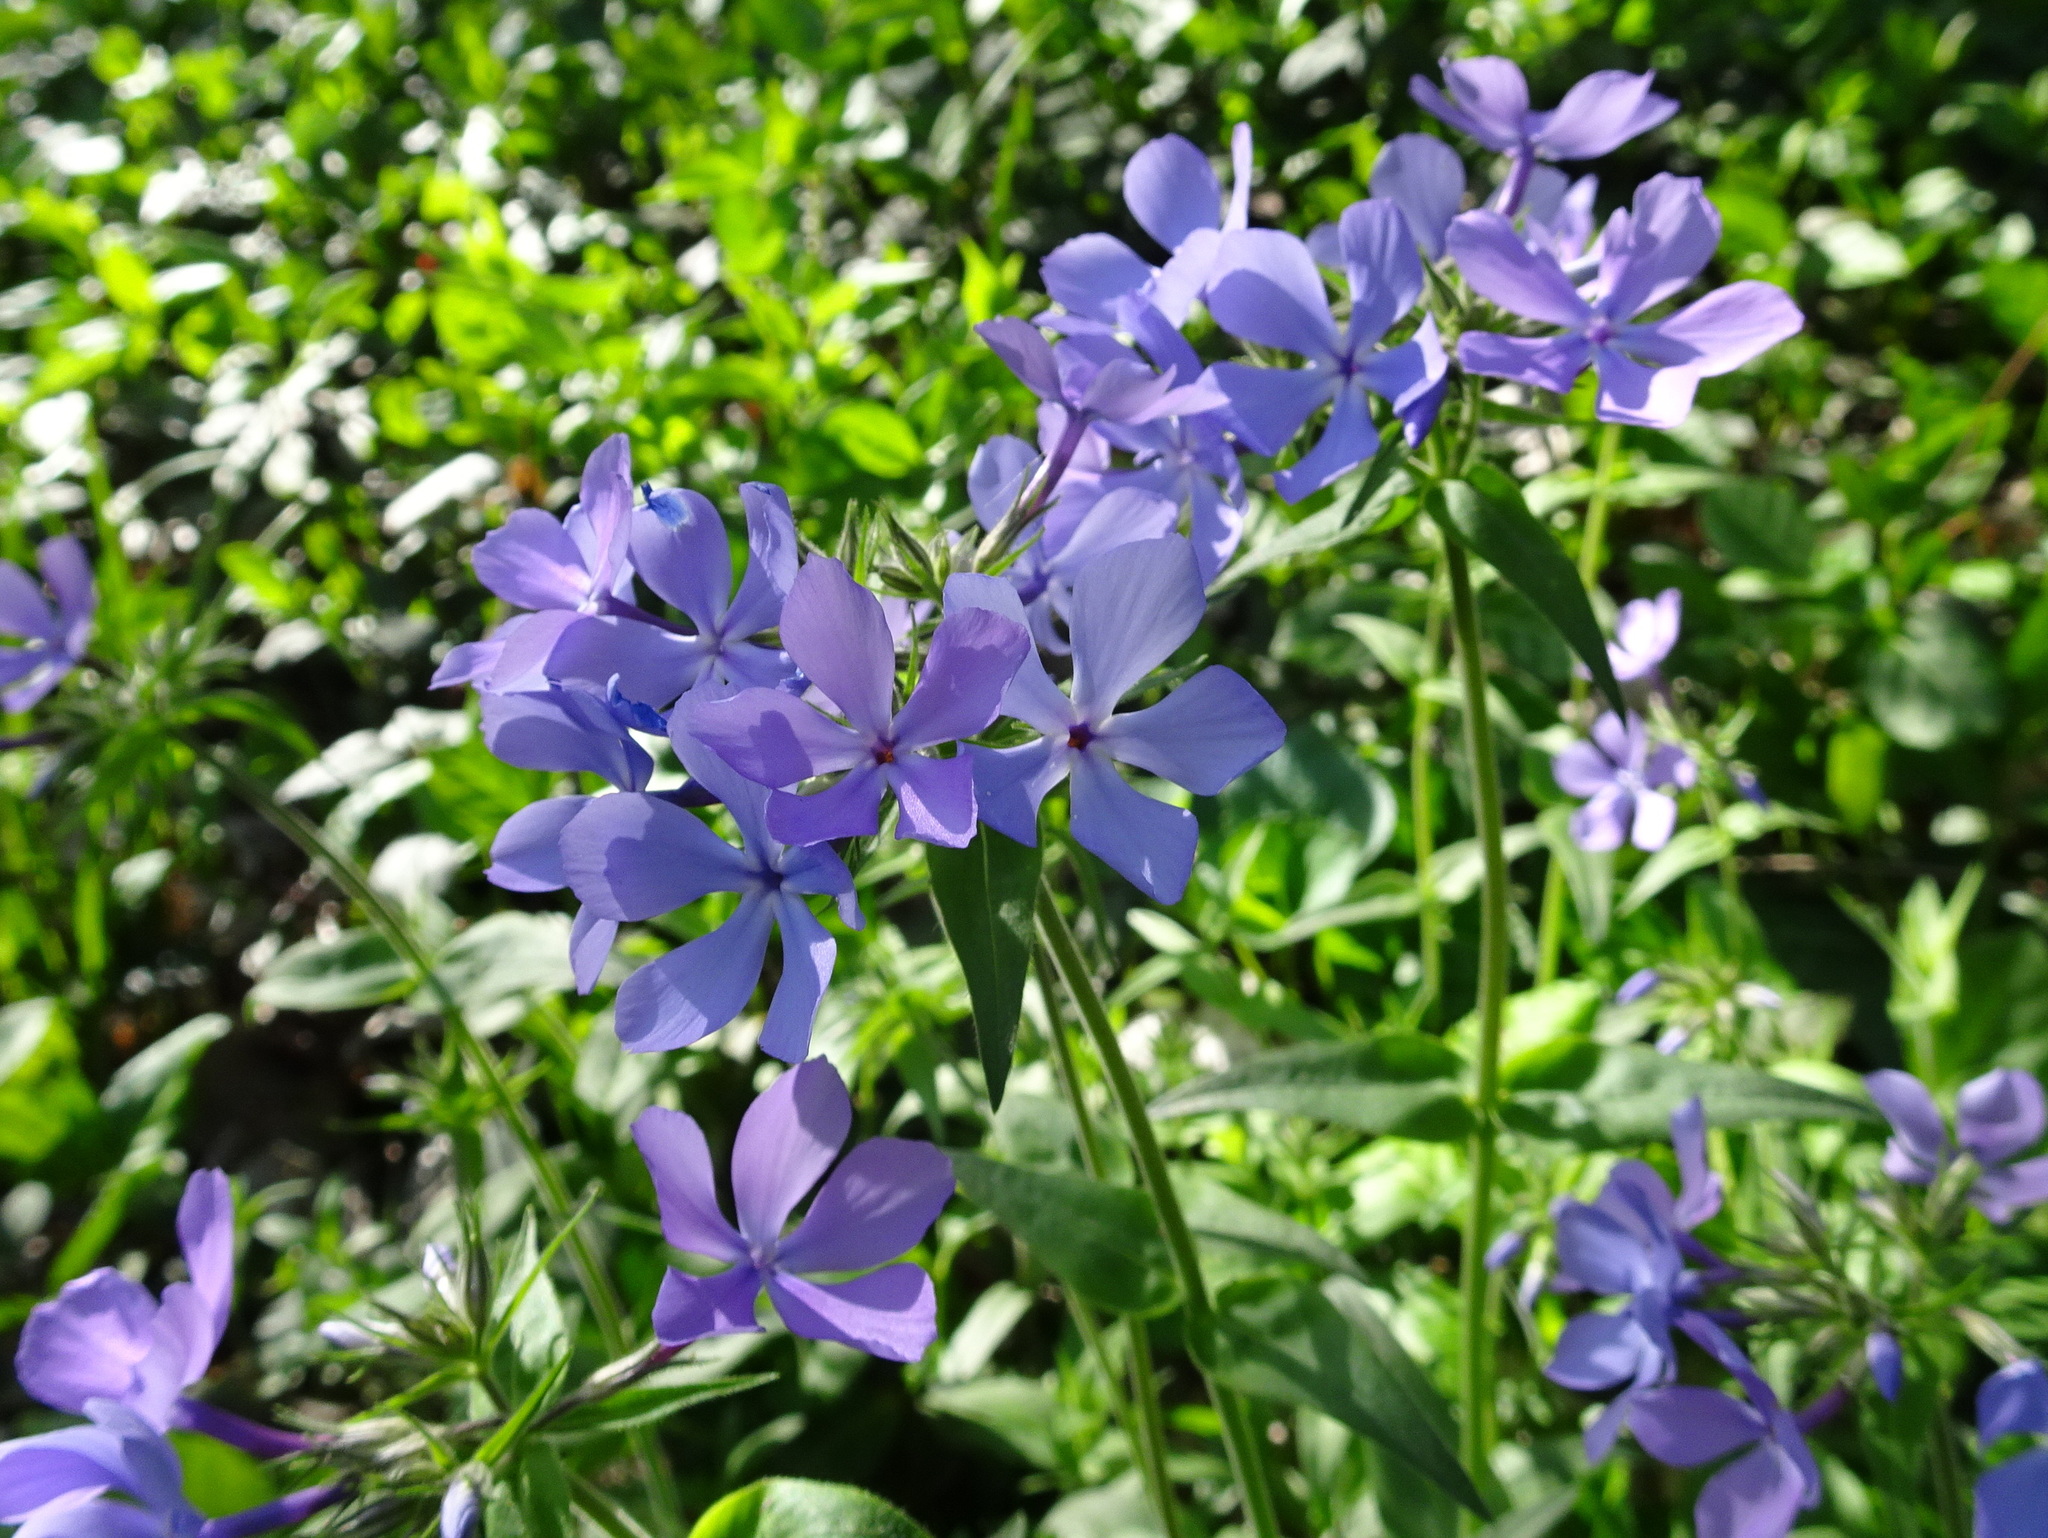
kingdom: Plantae
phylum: Tracheophyta
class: Magnoliopsida
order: Ericales
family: Polemoniaceae
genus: Phlox
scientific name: Phlox divaricata
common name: Blue phlox
